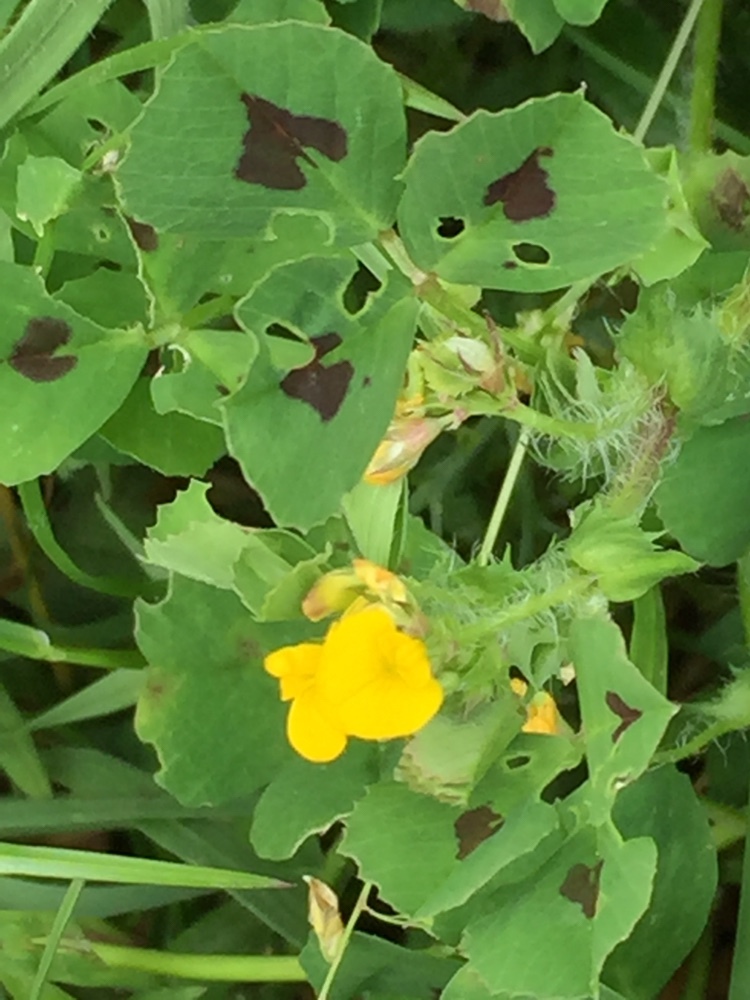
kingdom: Plantae
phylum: Tracheophyta
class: Magnoliopsida
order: Fabales
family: Fabaceae
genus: Medicago
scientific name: Medicago arabica
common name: Spotted medick
